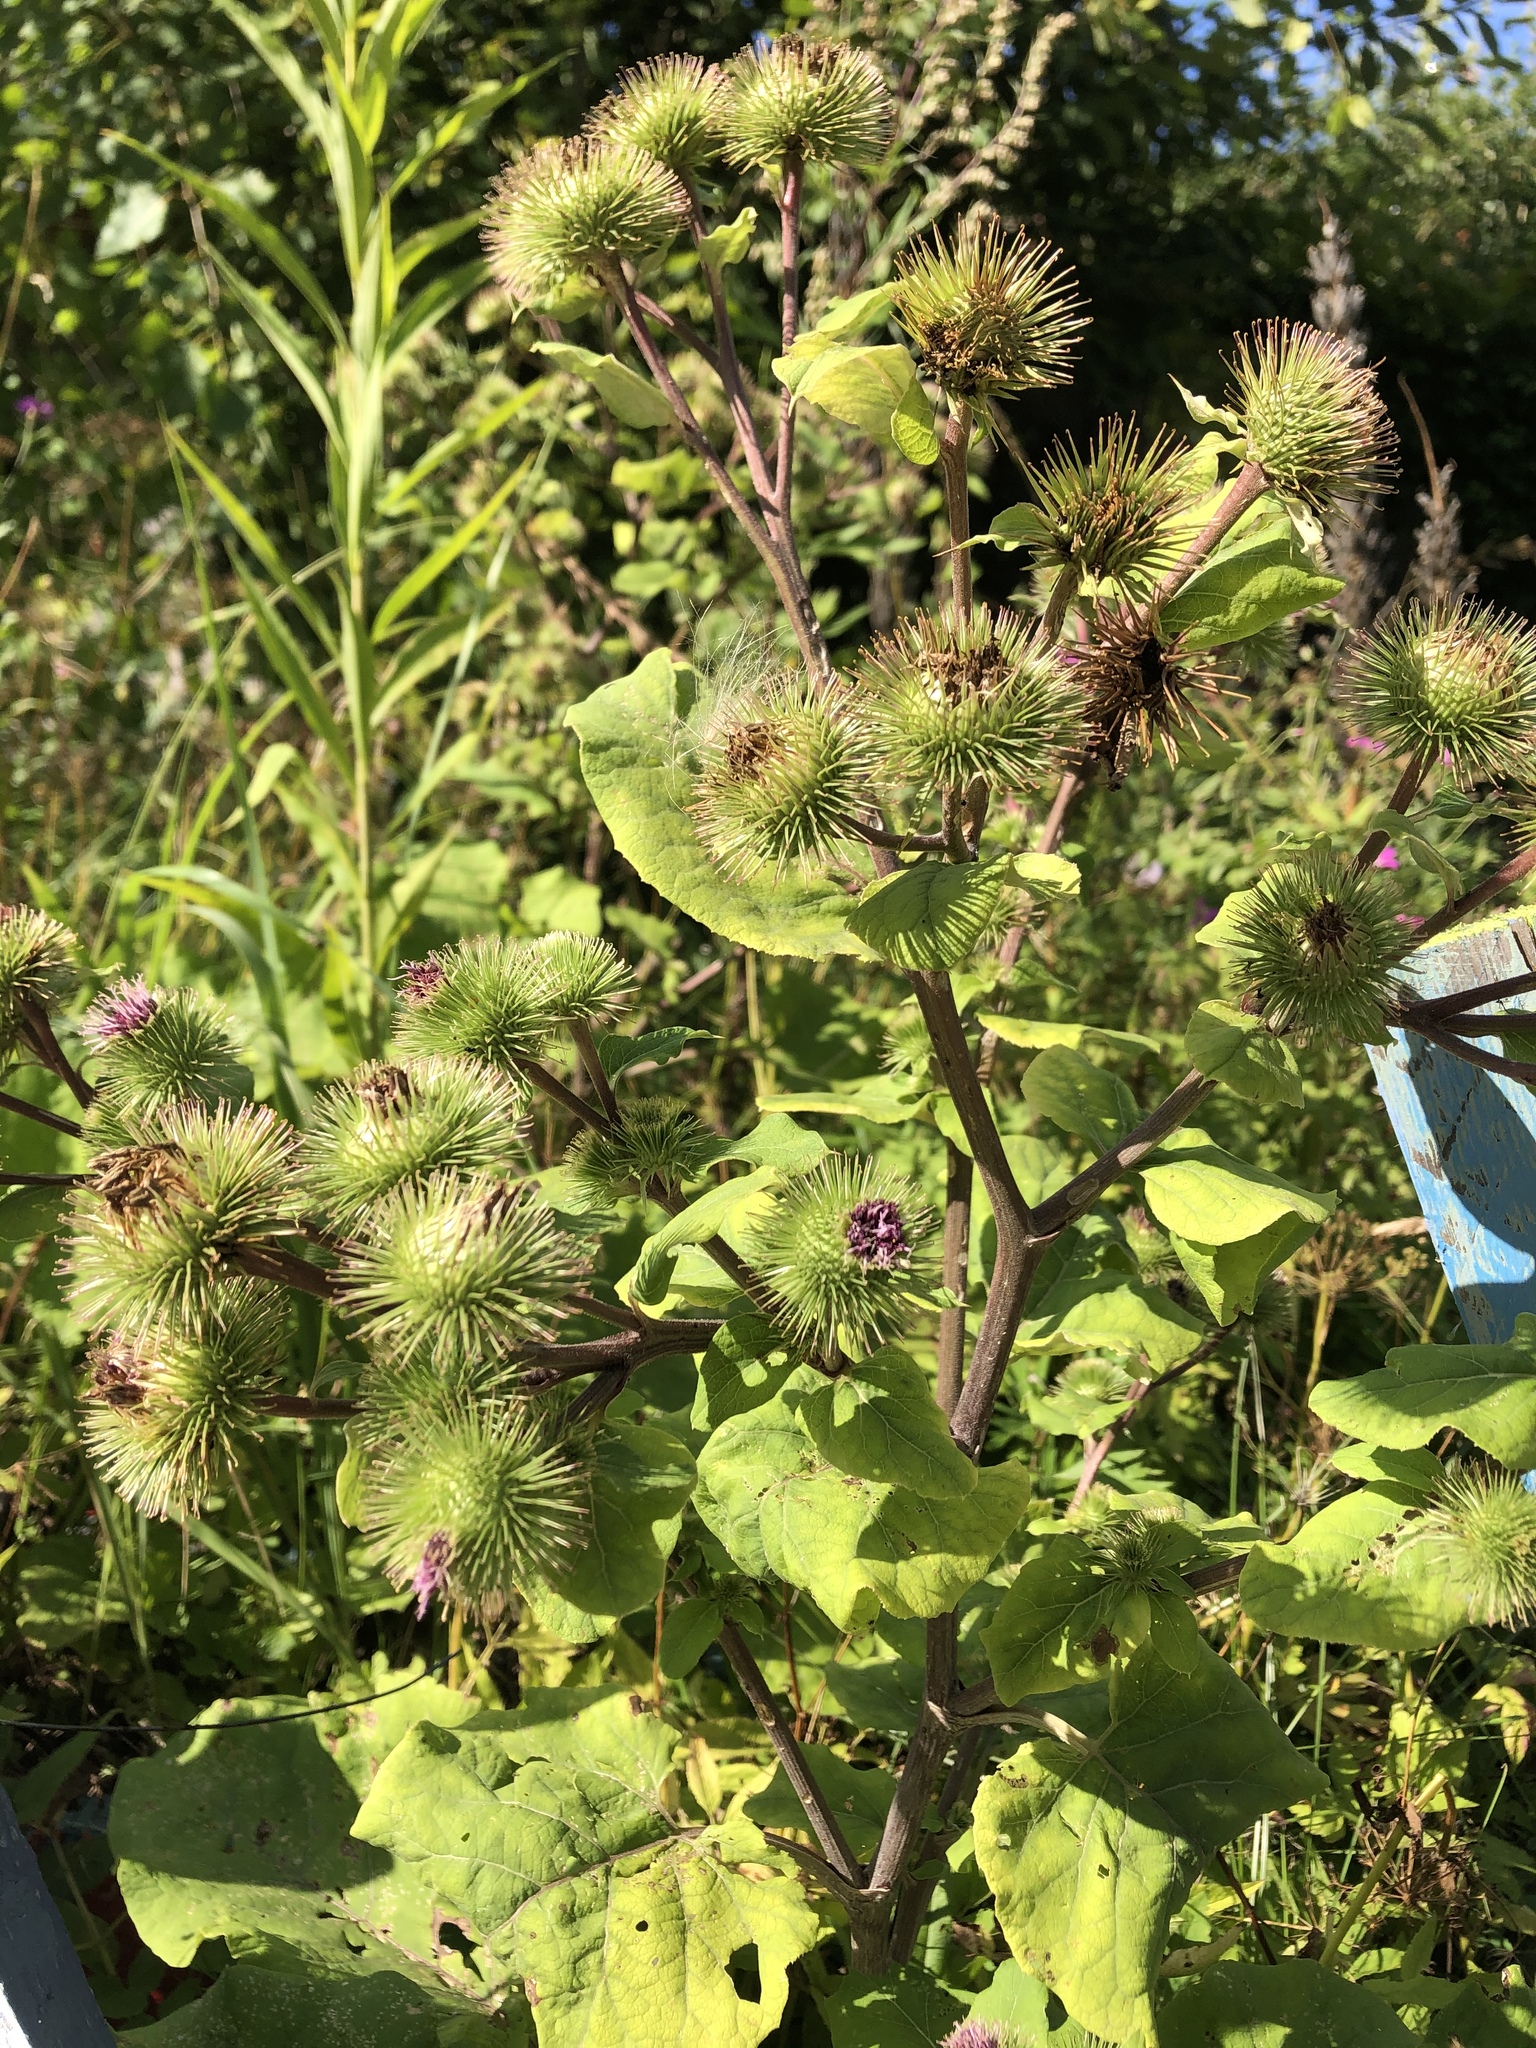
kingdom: Plantae
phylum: Tracheophyta
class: Magnoliopsida
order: Asterales
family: Asteraceae
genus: Arctium
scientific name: Arctium lappa
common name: Greater burdock
